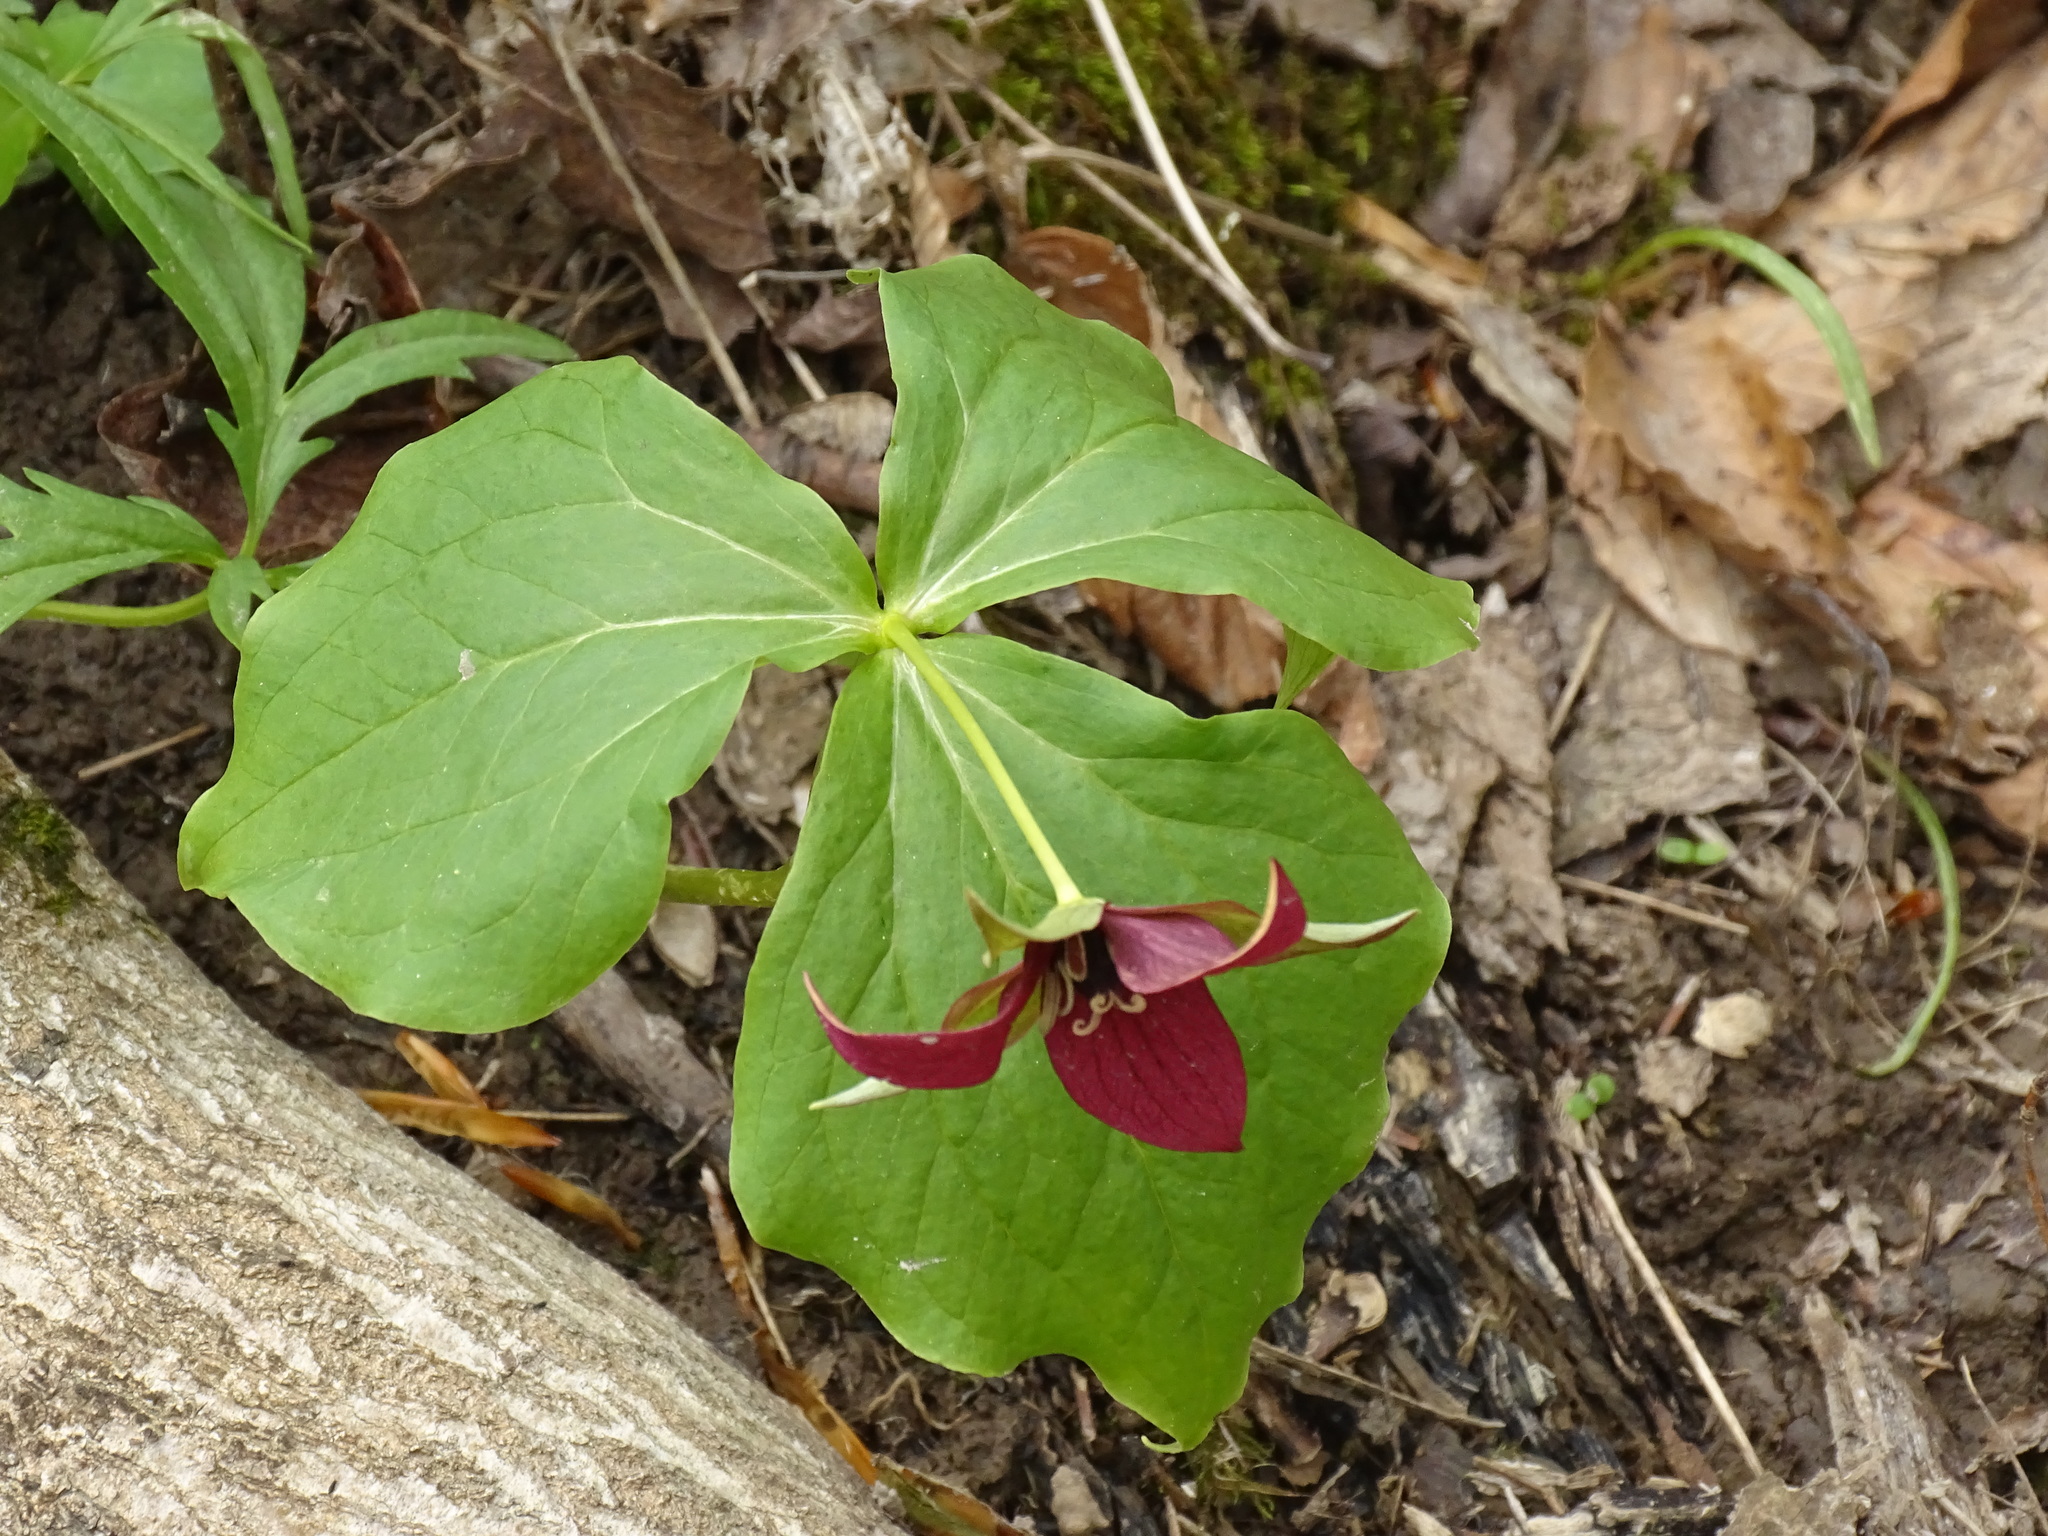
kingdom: Plantae
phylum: Tracheophyta
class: Liliopsida
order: Liliales
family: Melanthiaceae
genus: Trillium
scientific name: Trillium erectum
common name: Purple trillium
